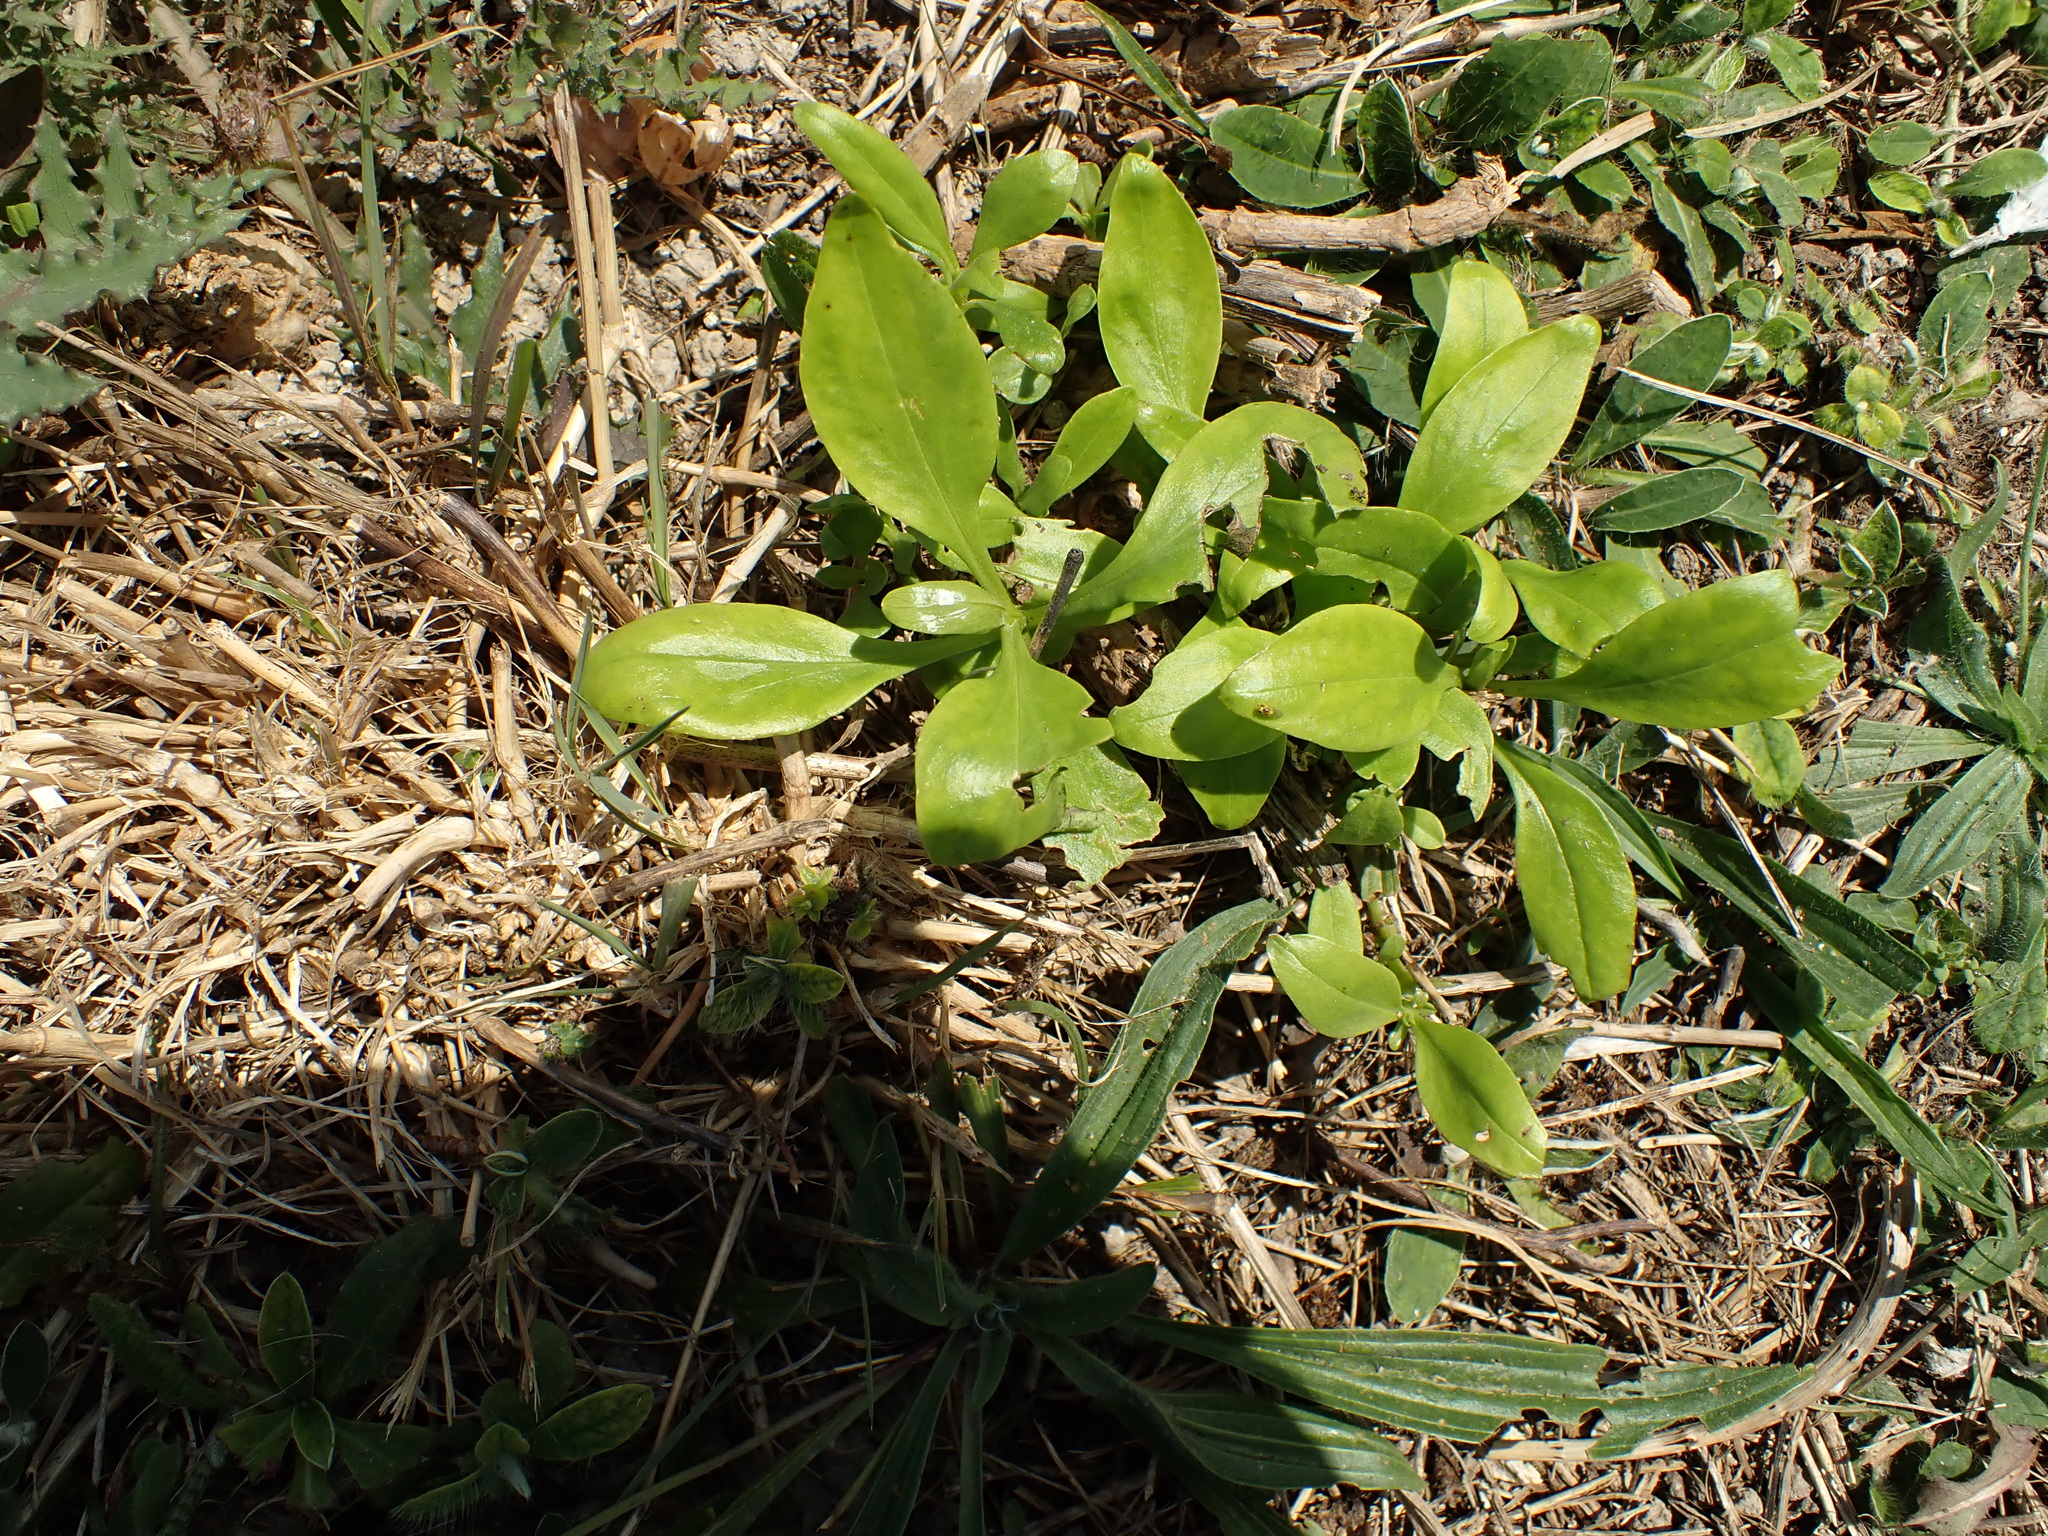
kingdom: Plantae
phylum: Tracheophyta
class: Magnoliopsida
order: Dipsacales
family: Caprifoliaceae
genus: Centranthus
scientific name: Centranthus ruber
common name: Red valerian
